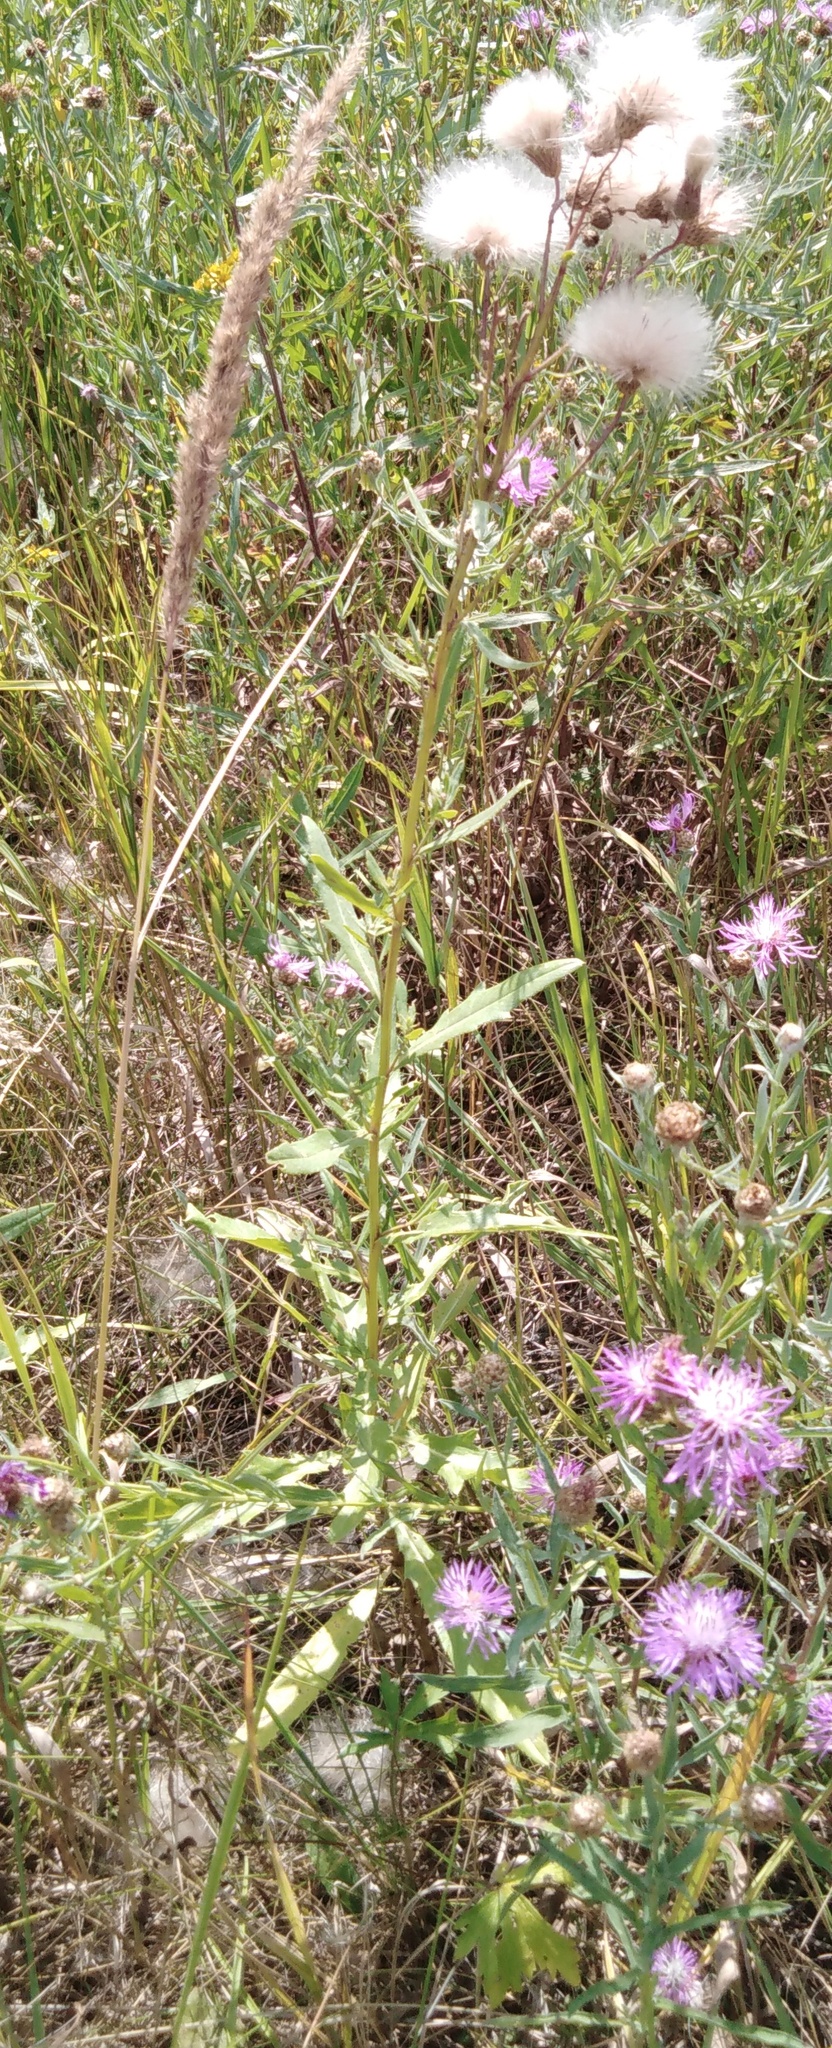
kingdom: Plantae
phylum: Tracheophyta
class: Magnoliopsida
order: Asterales
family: Asteraceae
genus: Cirsium
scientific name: Cirsium arvense
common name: Creeping thistle
